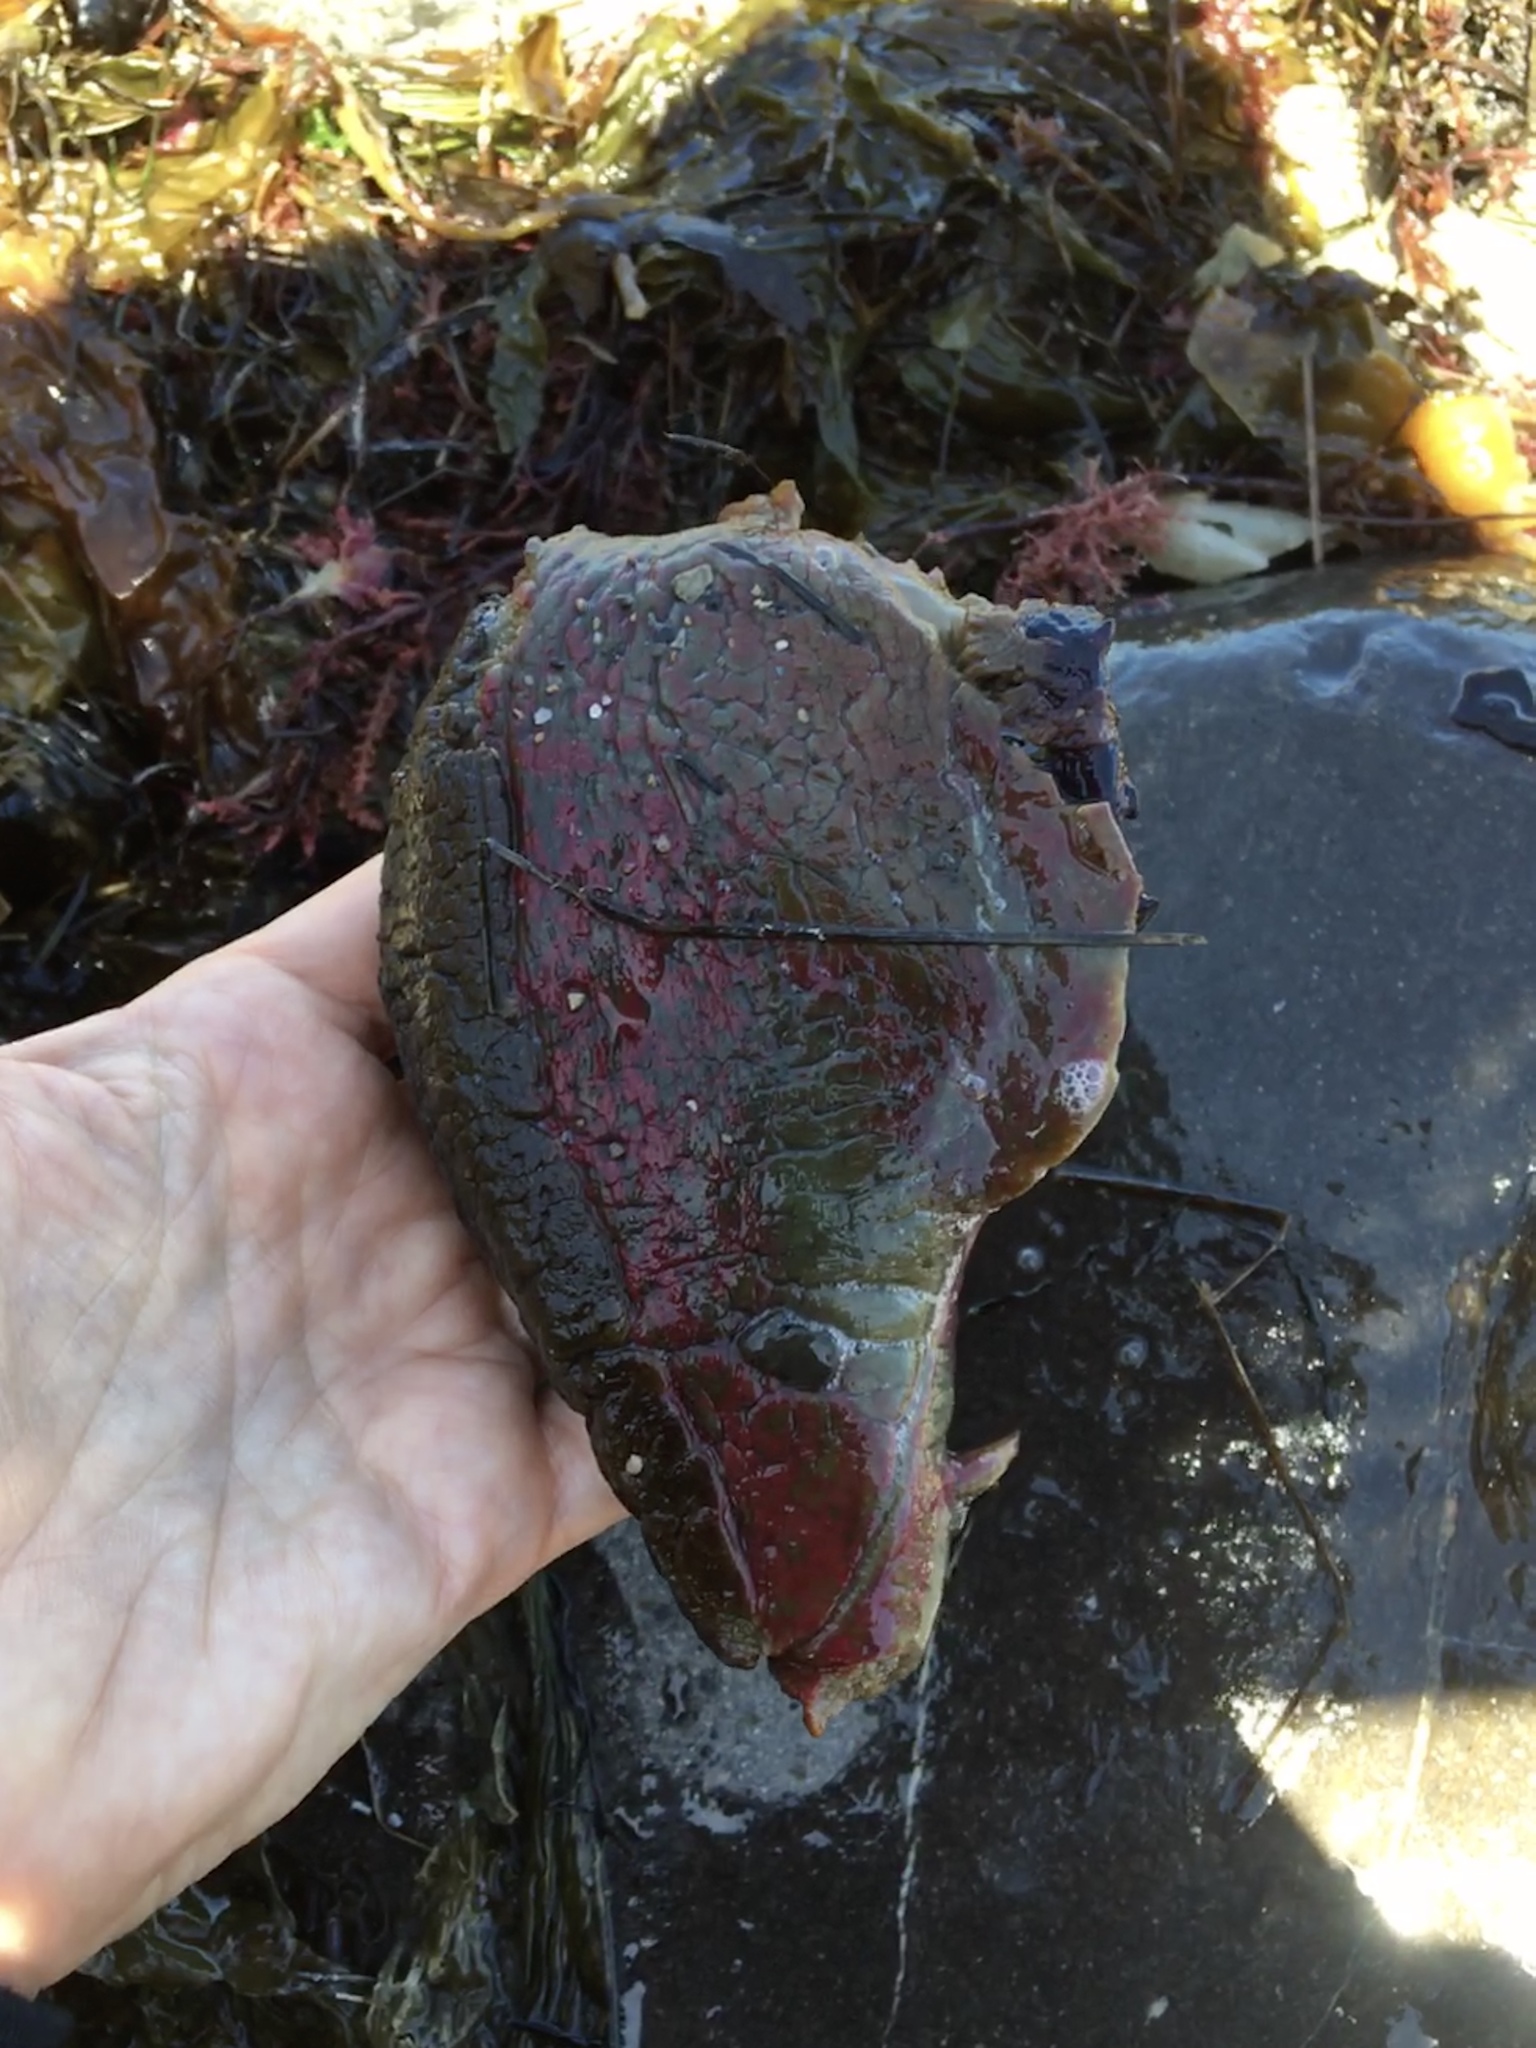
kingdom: Animalia
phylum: Mollusca
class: Gastropoda
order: Aplysiida
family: Aplysiidae
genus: Aplysia
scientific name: Aplysia californica
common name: California seahare
